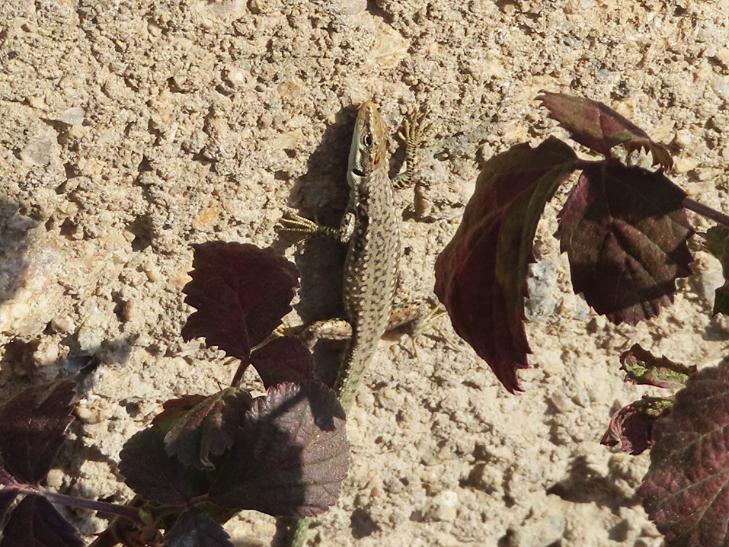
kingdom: Animalia
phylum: Chordata
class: Squamata
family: Lacertidae
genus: Darevskia
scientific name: Darevskia raddei
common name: Radde's lizard
